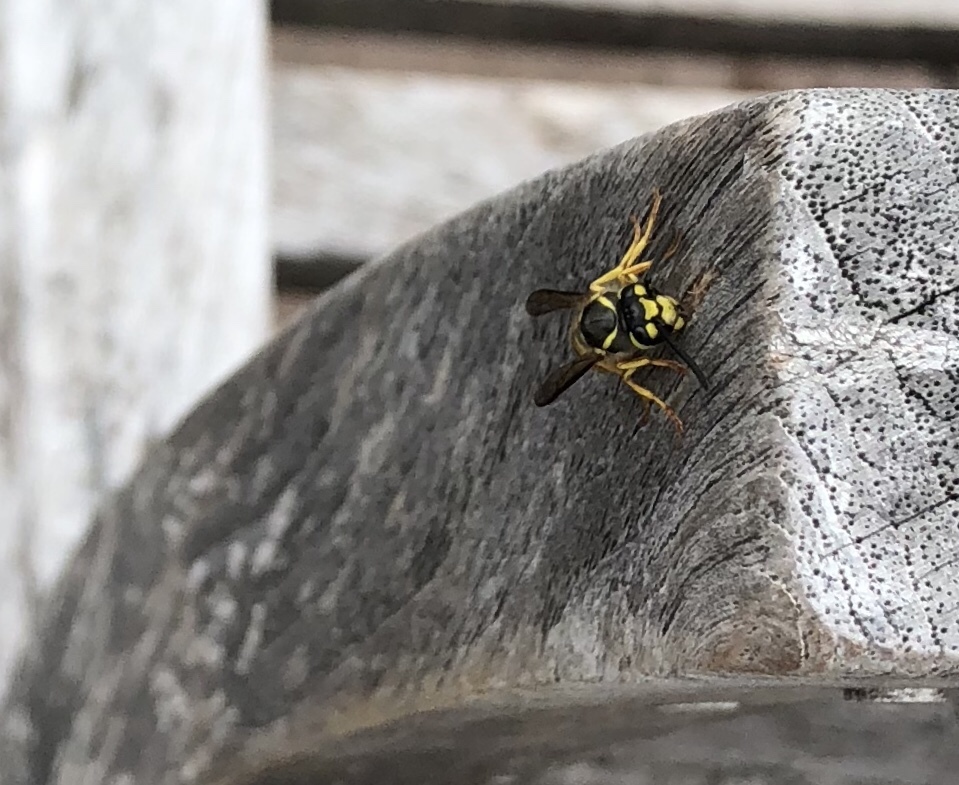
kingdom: Animalia
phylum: Arthropoda
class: Insecta
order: Hymenoptera
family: Vespidae
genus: Vespula
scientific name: Vespula germanica
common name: German wasp
